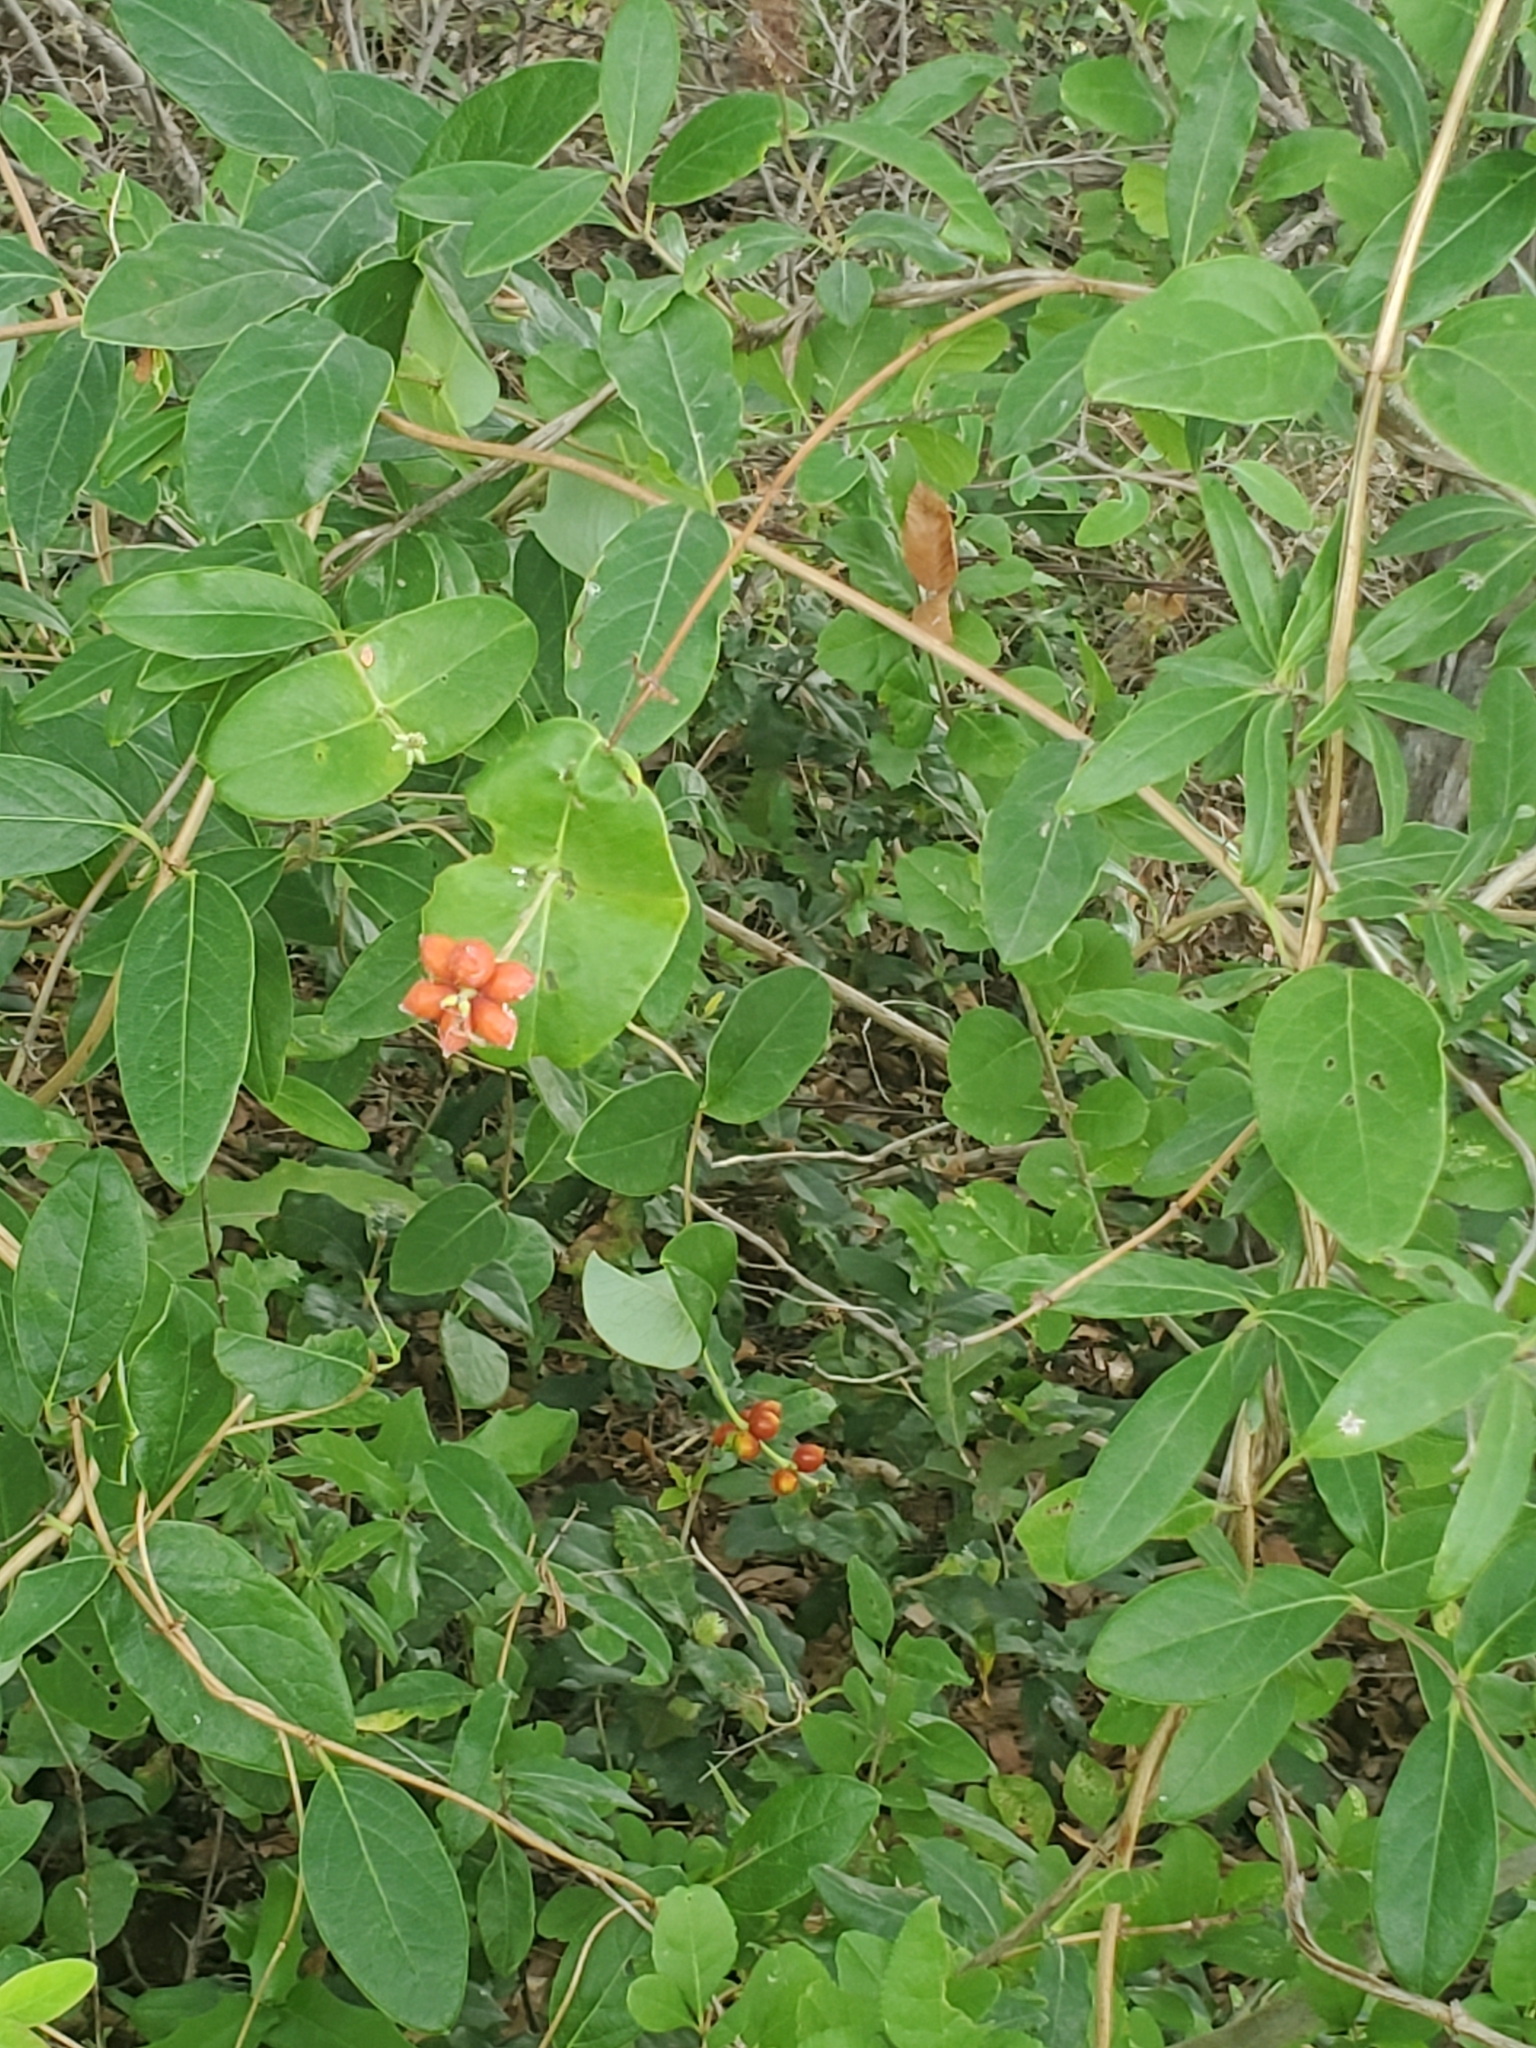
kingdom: Plantae
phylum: Tracheophyta
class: Magnoliopsida
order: Dipsacales
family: Caprifoliaceae
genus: Lonicera
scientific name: Lonicera sempervirens
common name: Coral honeysuckle
